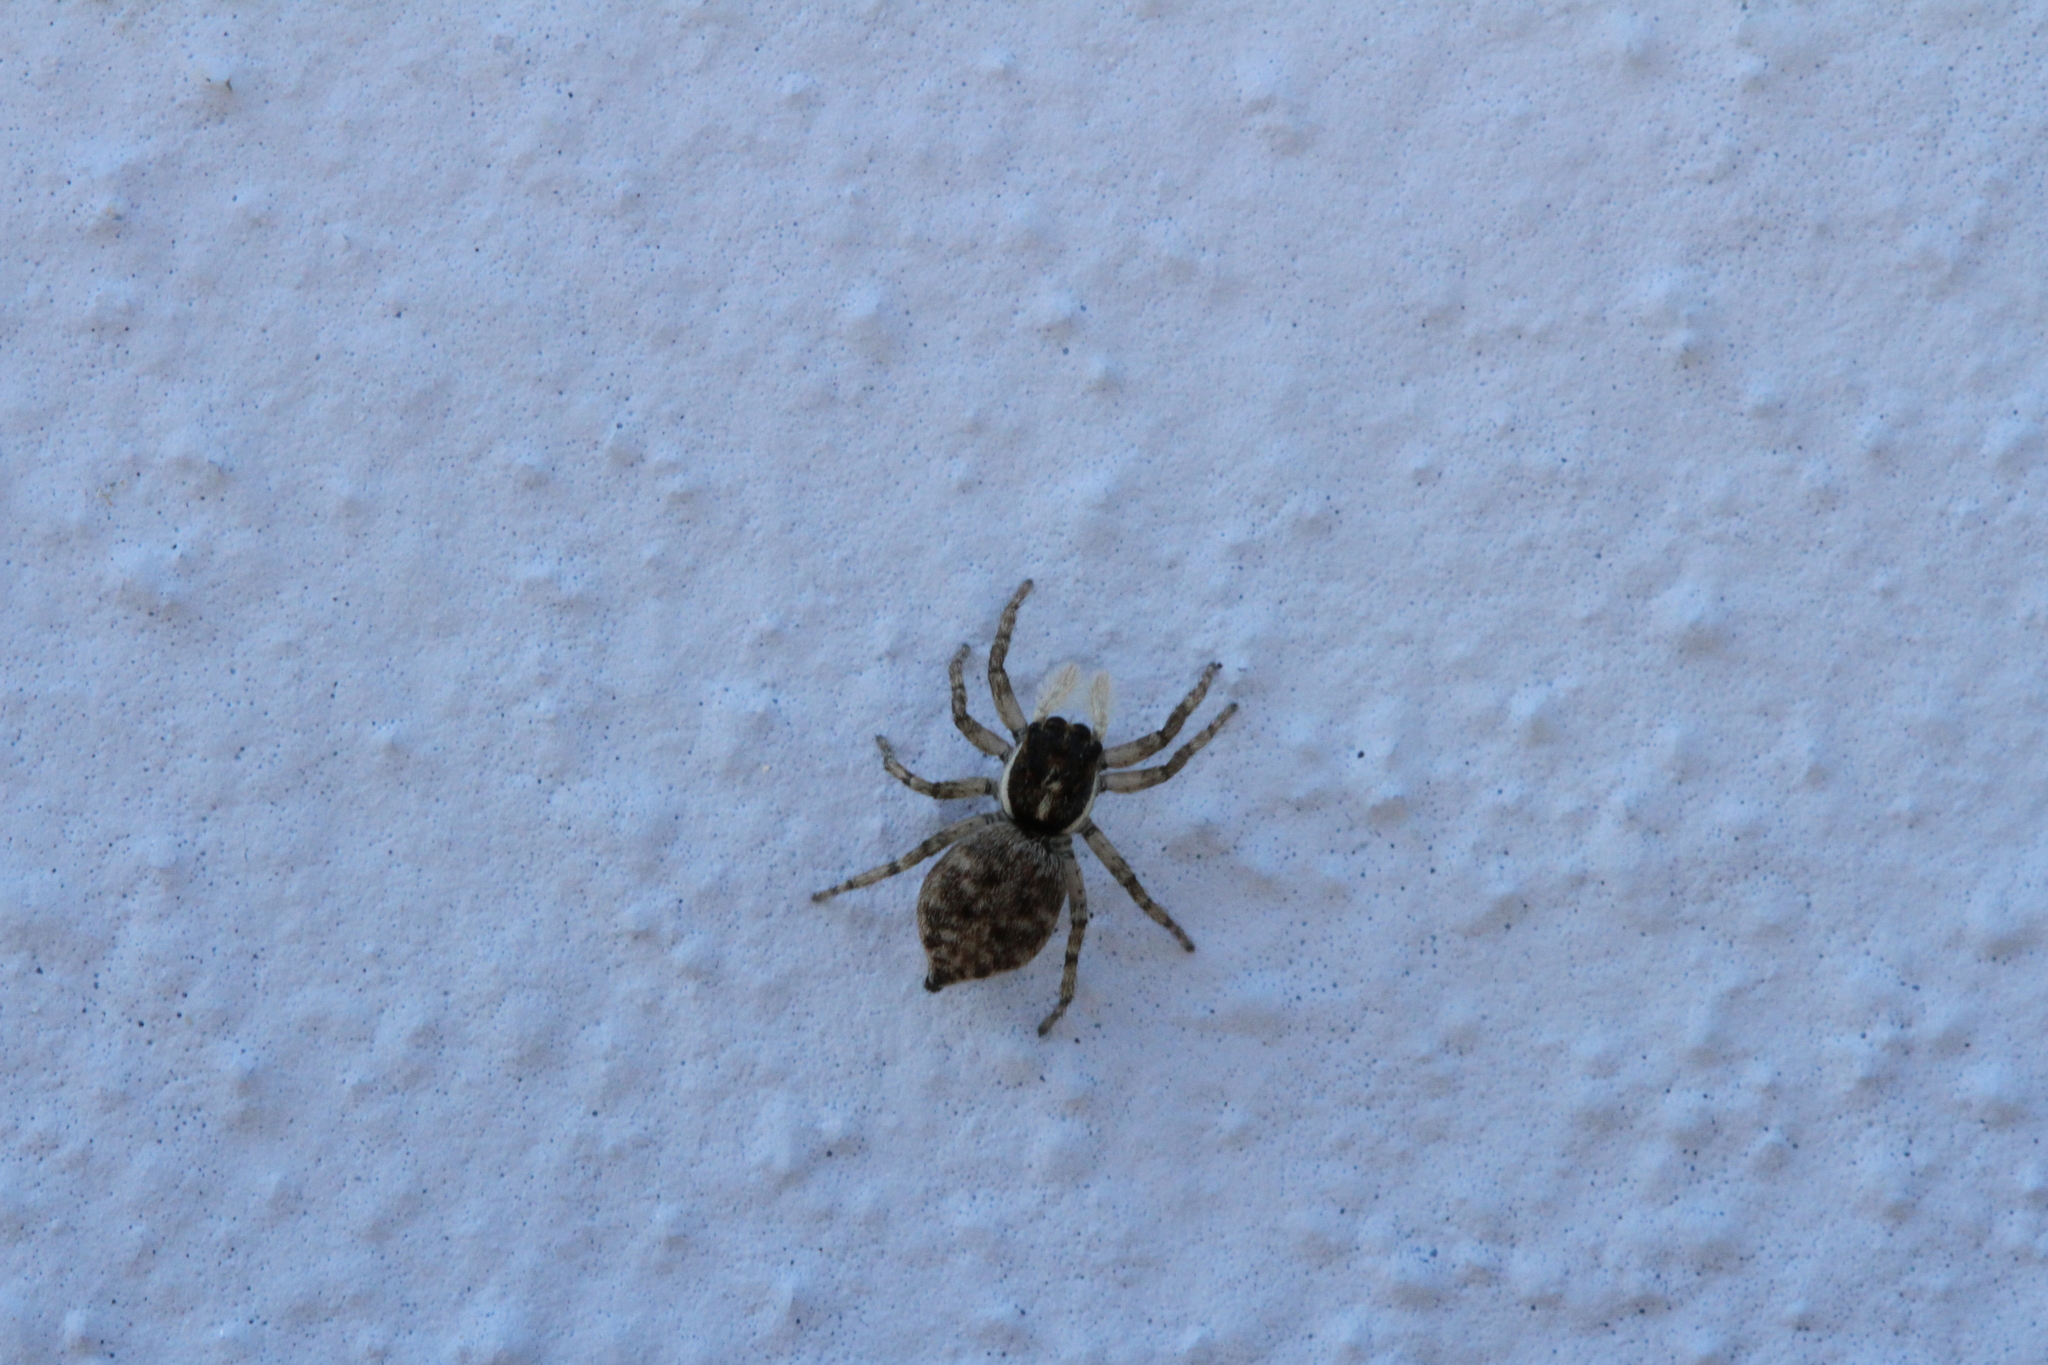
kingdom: Animalia
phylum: Arthropoda
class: Arachnida
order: Araneae
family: Salticidae
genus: Menemerus
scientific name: Menemerus semilimbatus
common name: Jumping spider
